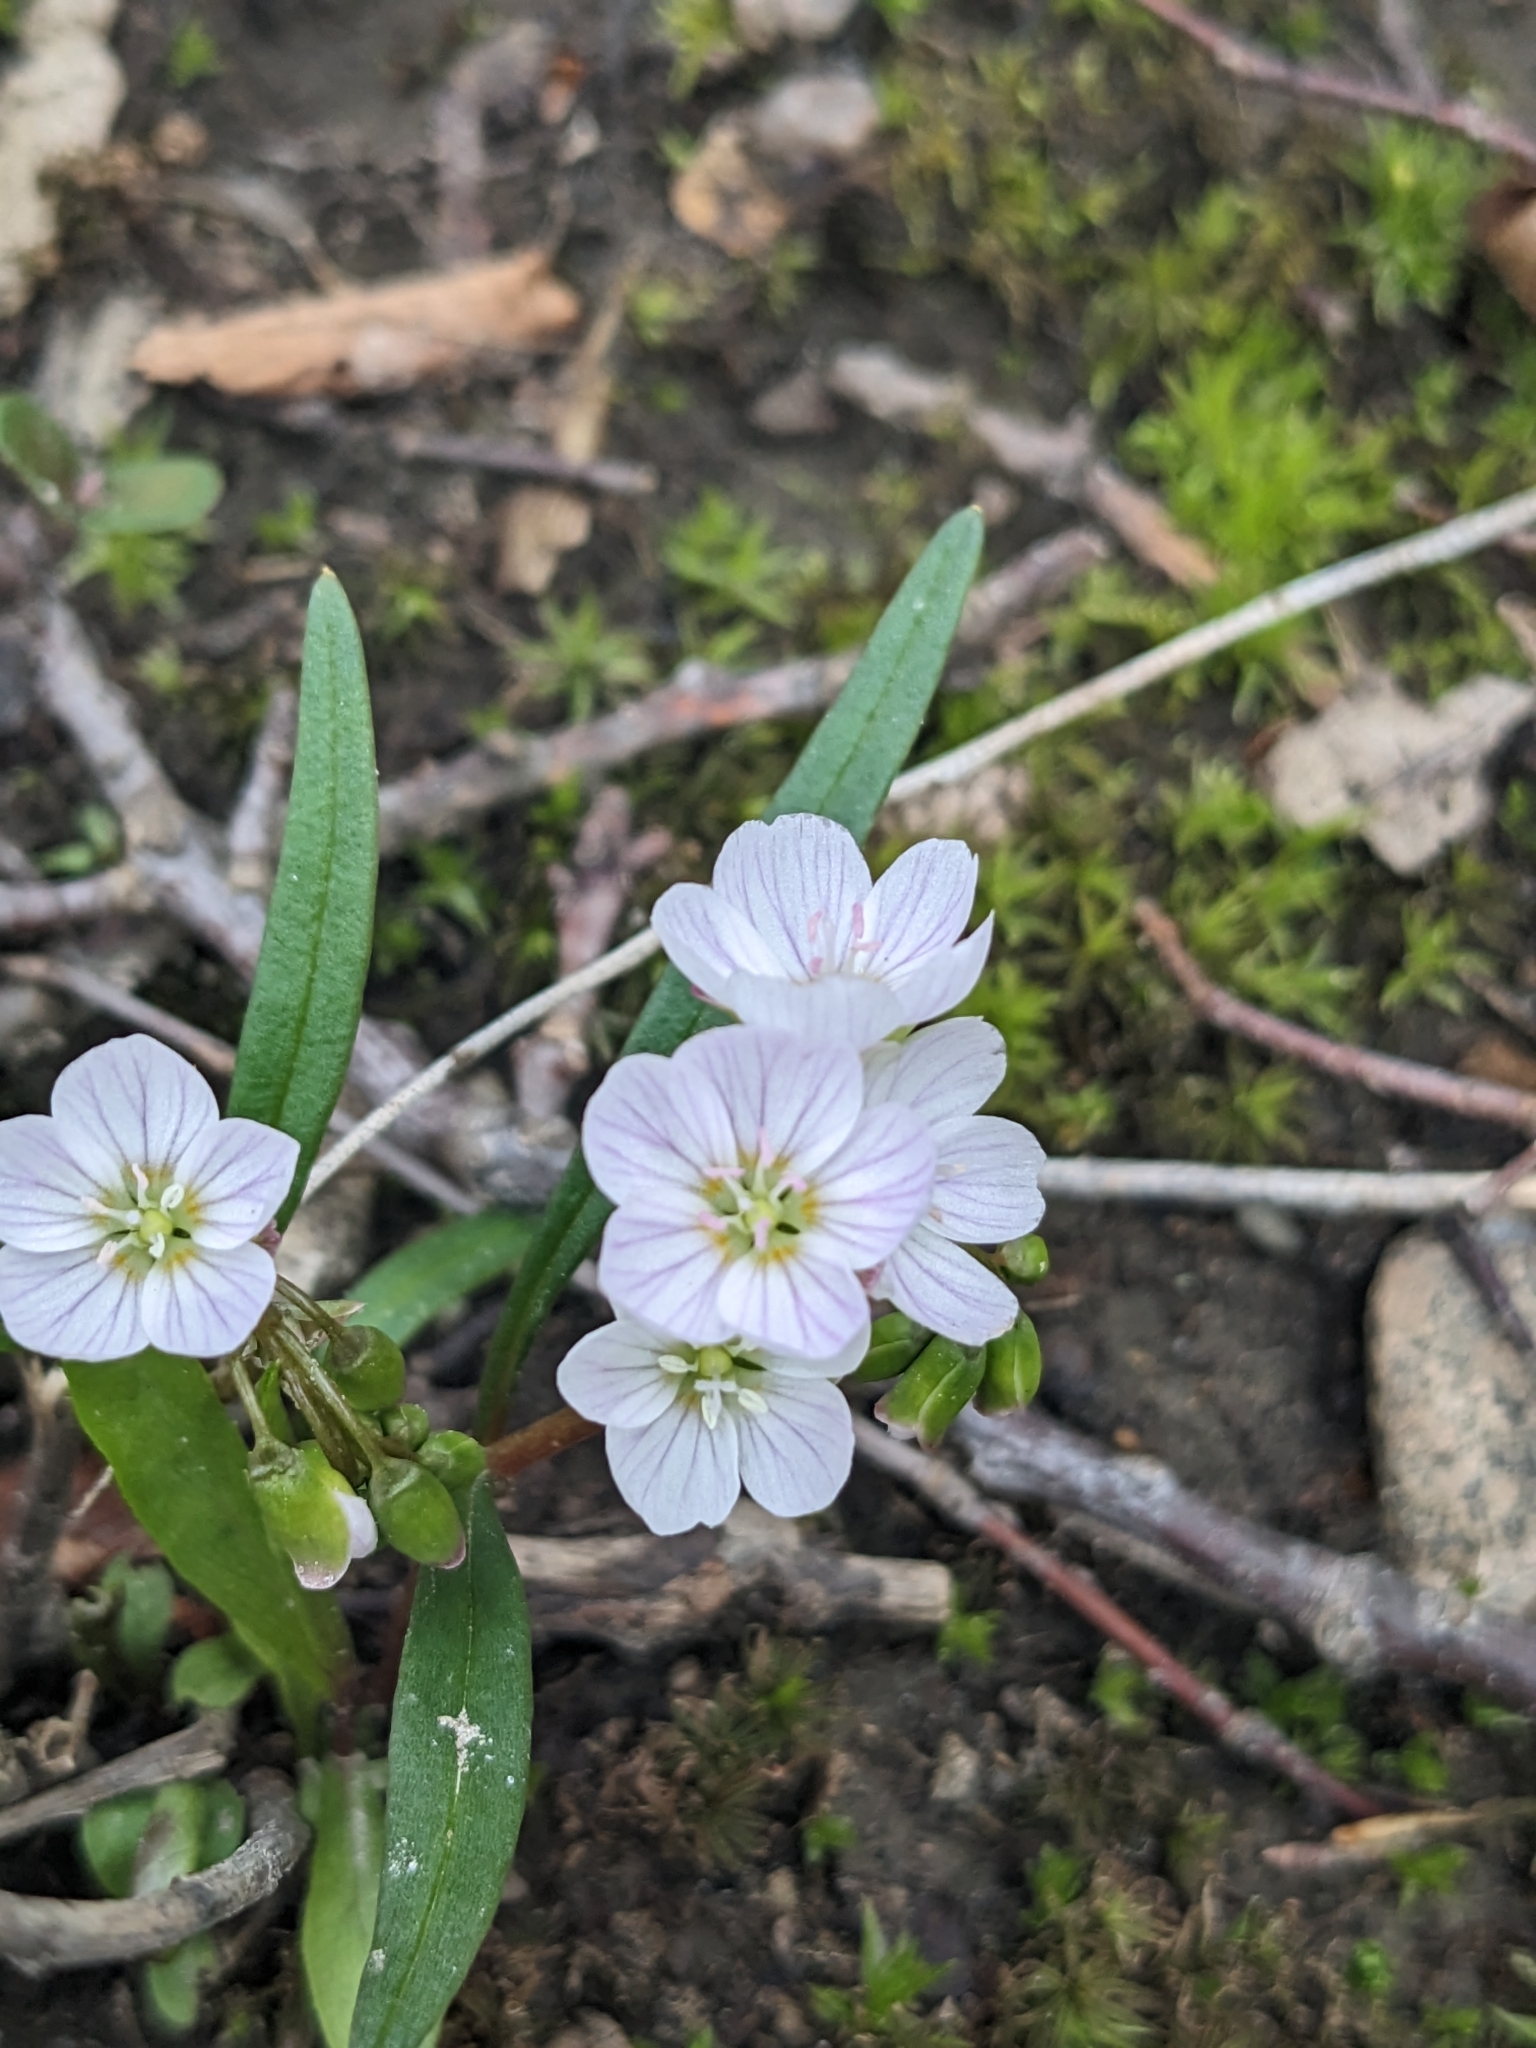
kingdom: Plantae
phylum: Tracheophyta
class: Magnoliopsida
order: Caryophyllales
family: Montiaceae
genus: Claytonia
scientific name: Claytonia virginica
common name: Virginia springbeauty
